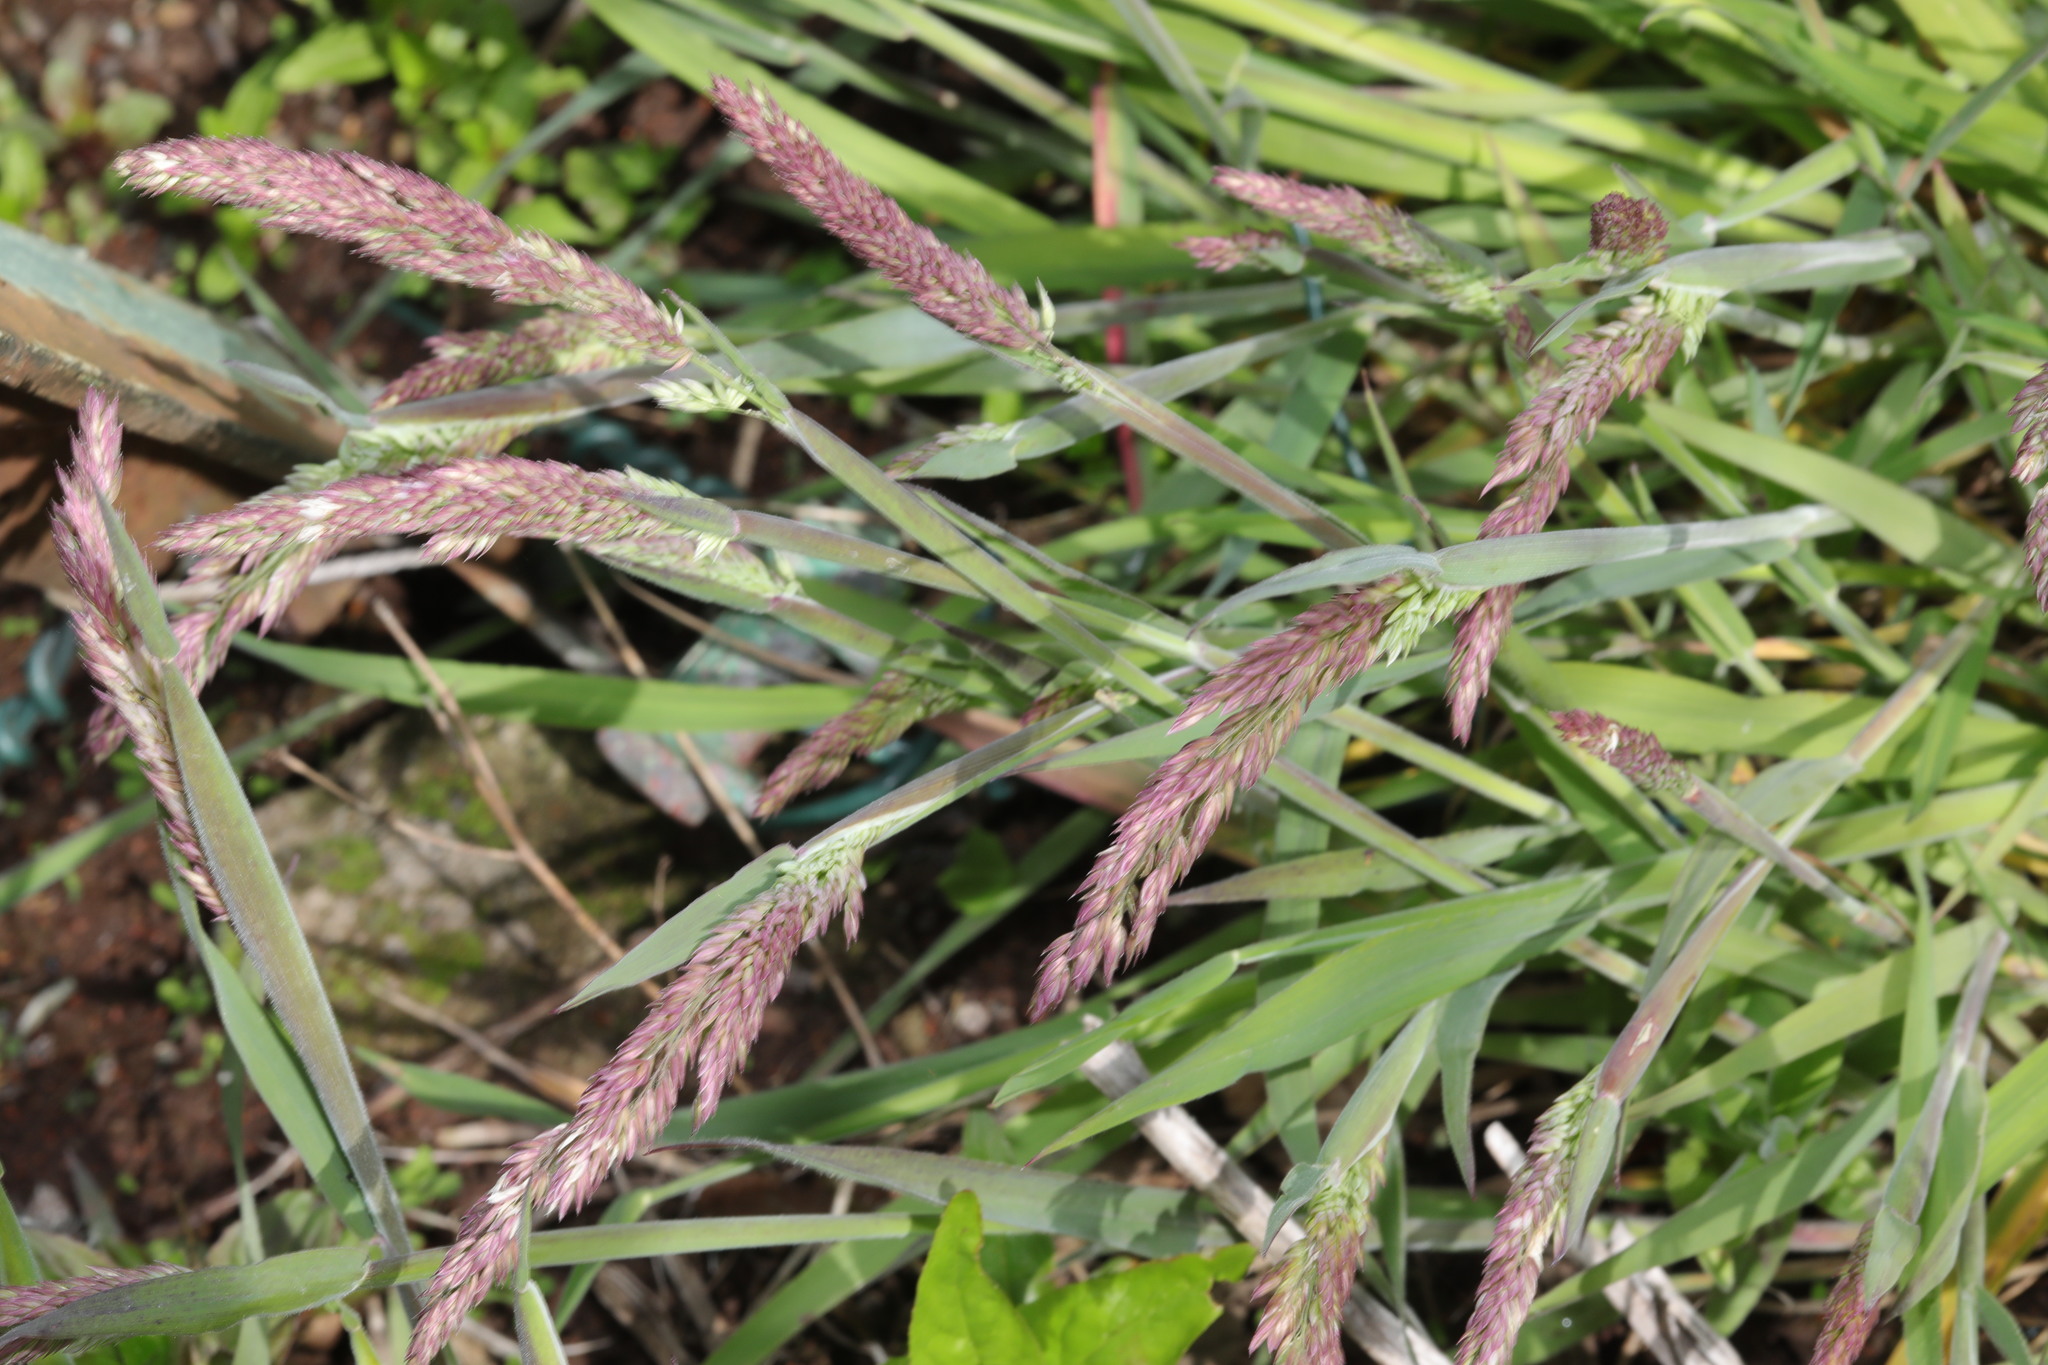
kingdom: Plantae
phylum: Tracheophyta
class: Liliopsida
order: Poales
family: Poaceae
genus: Holcus
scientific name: Holcus lanatus
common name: Yorkshire-fog
